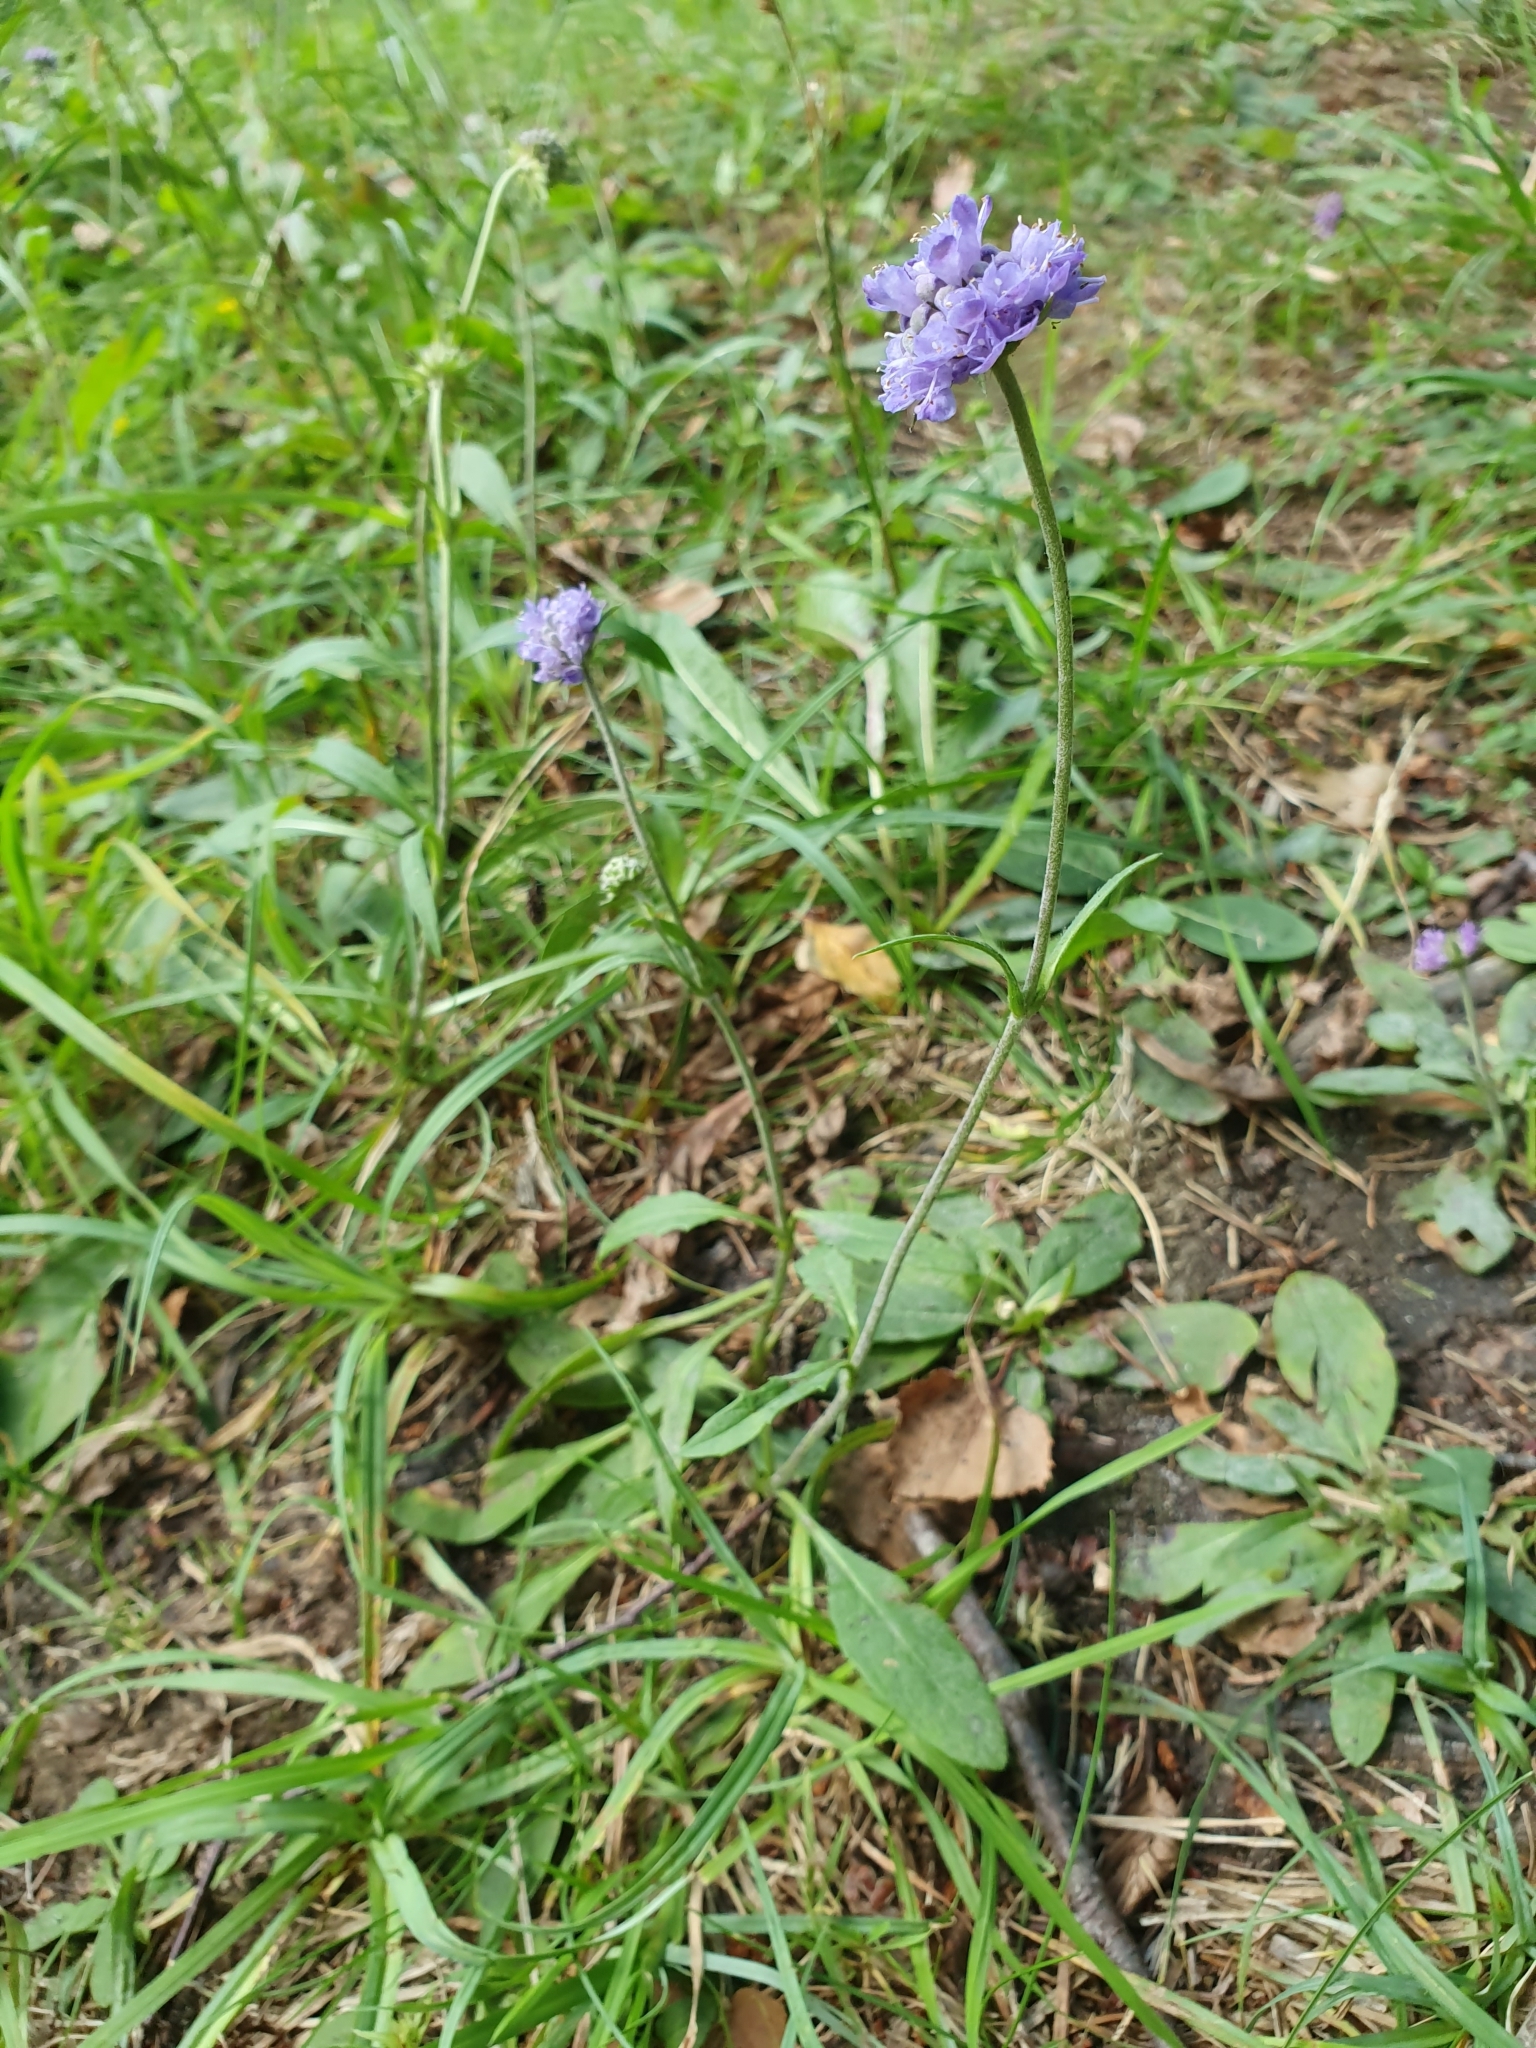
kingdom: Plantae
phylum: Tracheophyta
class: Magnoliopsida
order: Dipsacales
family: Caprifoliaceae
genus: Succisa
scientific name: Succisa pratensis
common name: Devil's-bit
